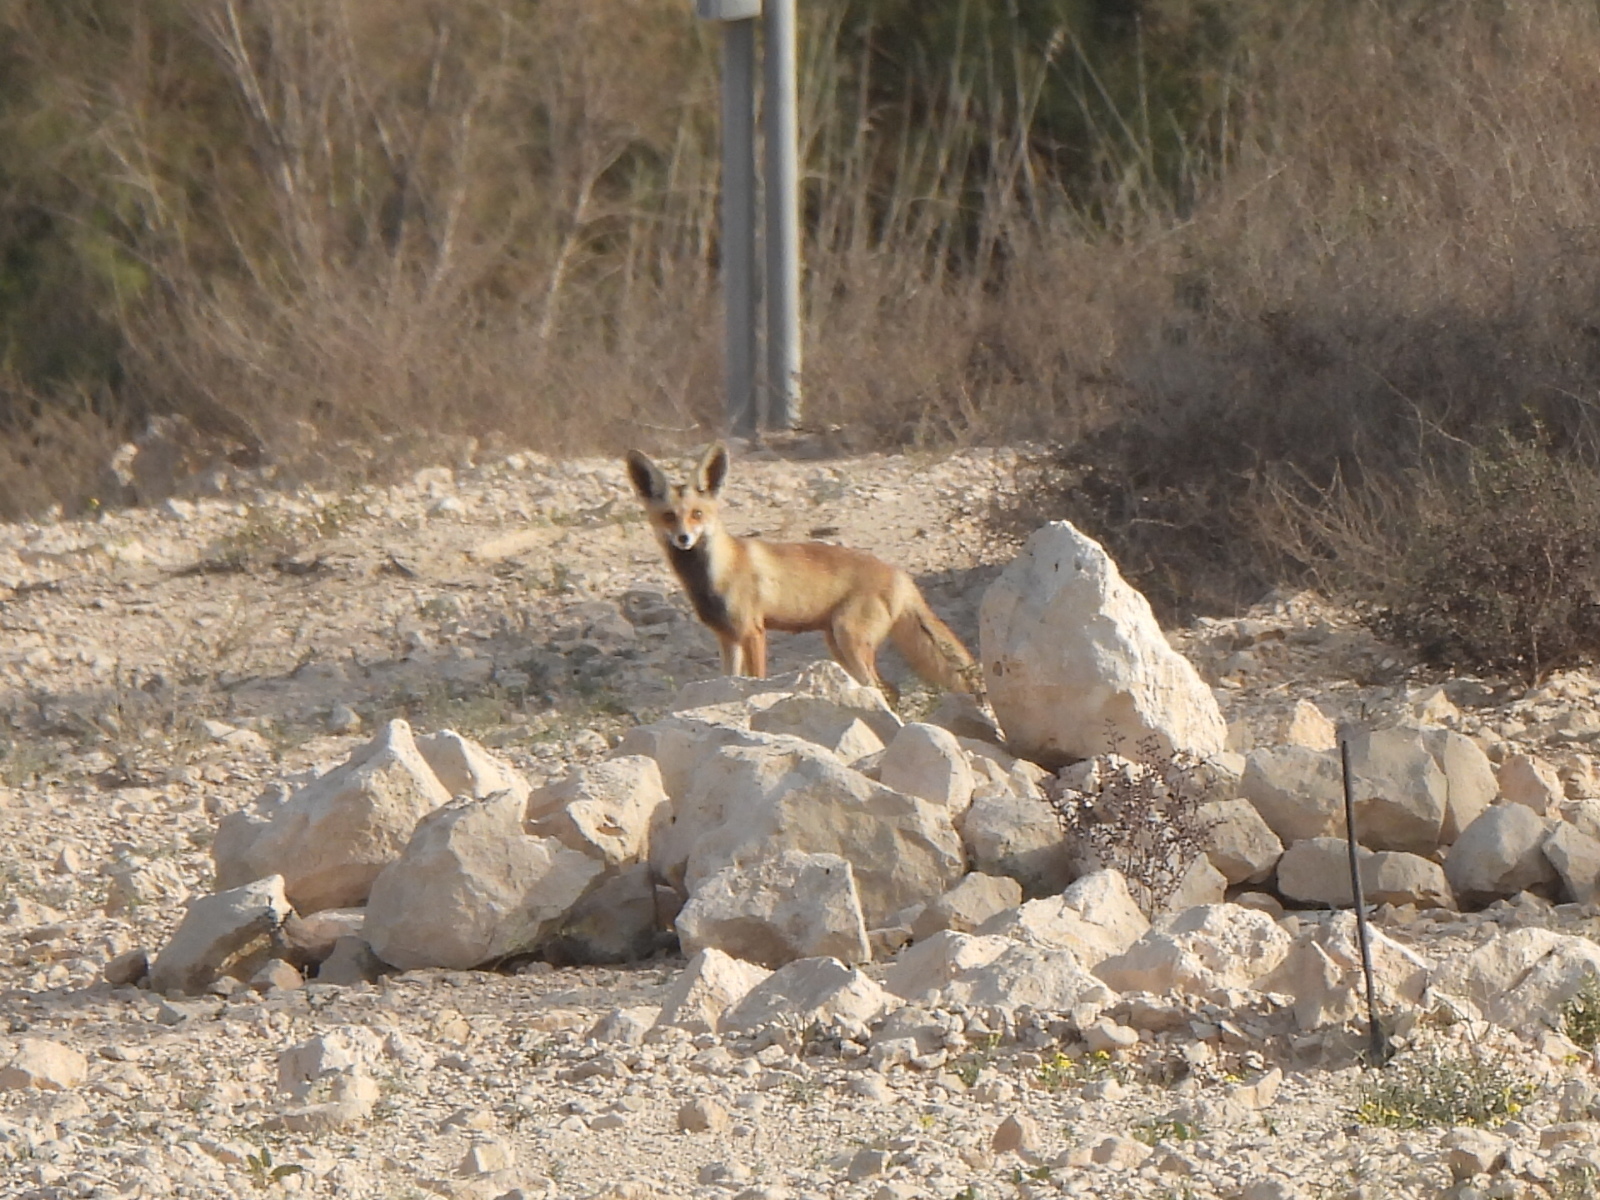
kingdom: Animalia
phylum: Chordata
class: Mammalia
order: Carnivora
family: Canidae
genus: Vulpes
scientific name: Vulpes vulpes
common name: Red fox
